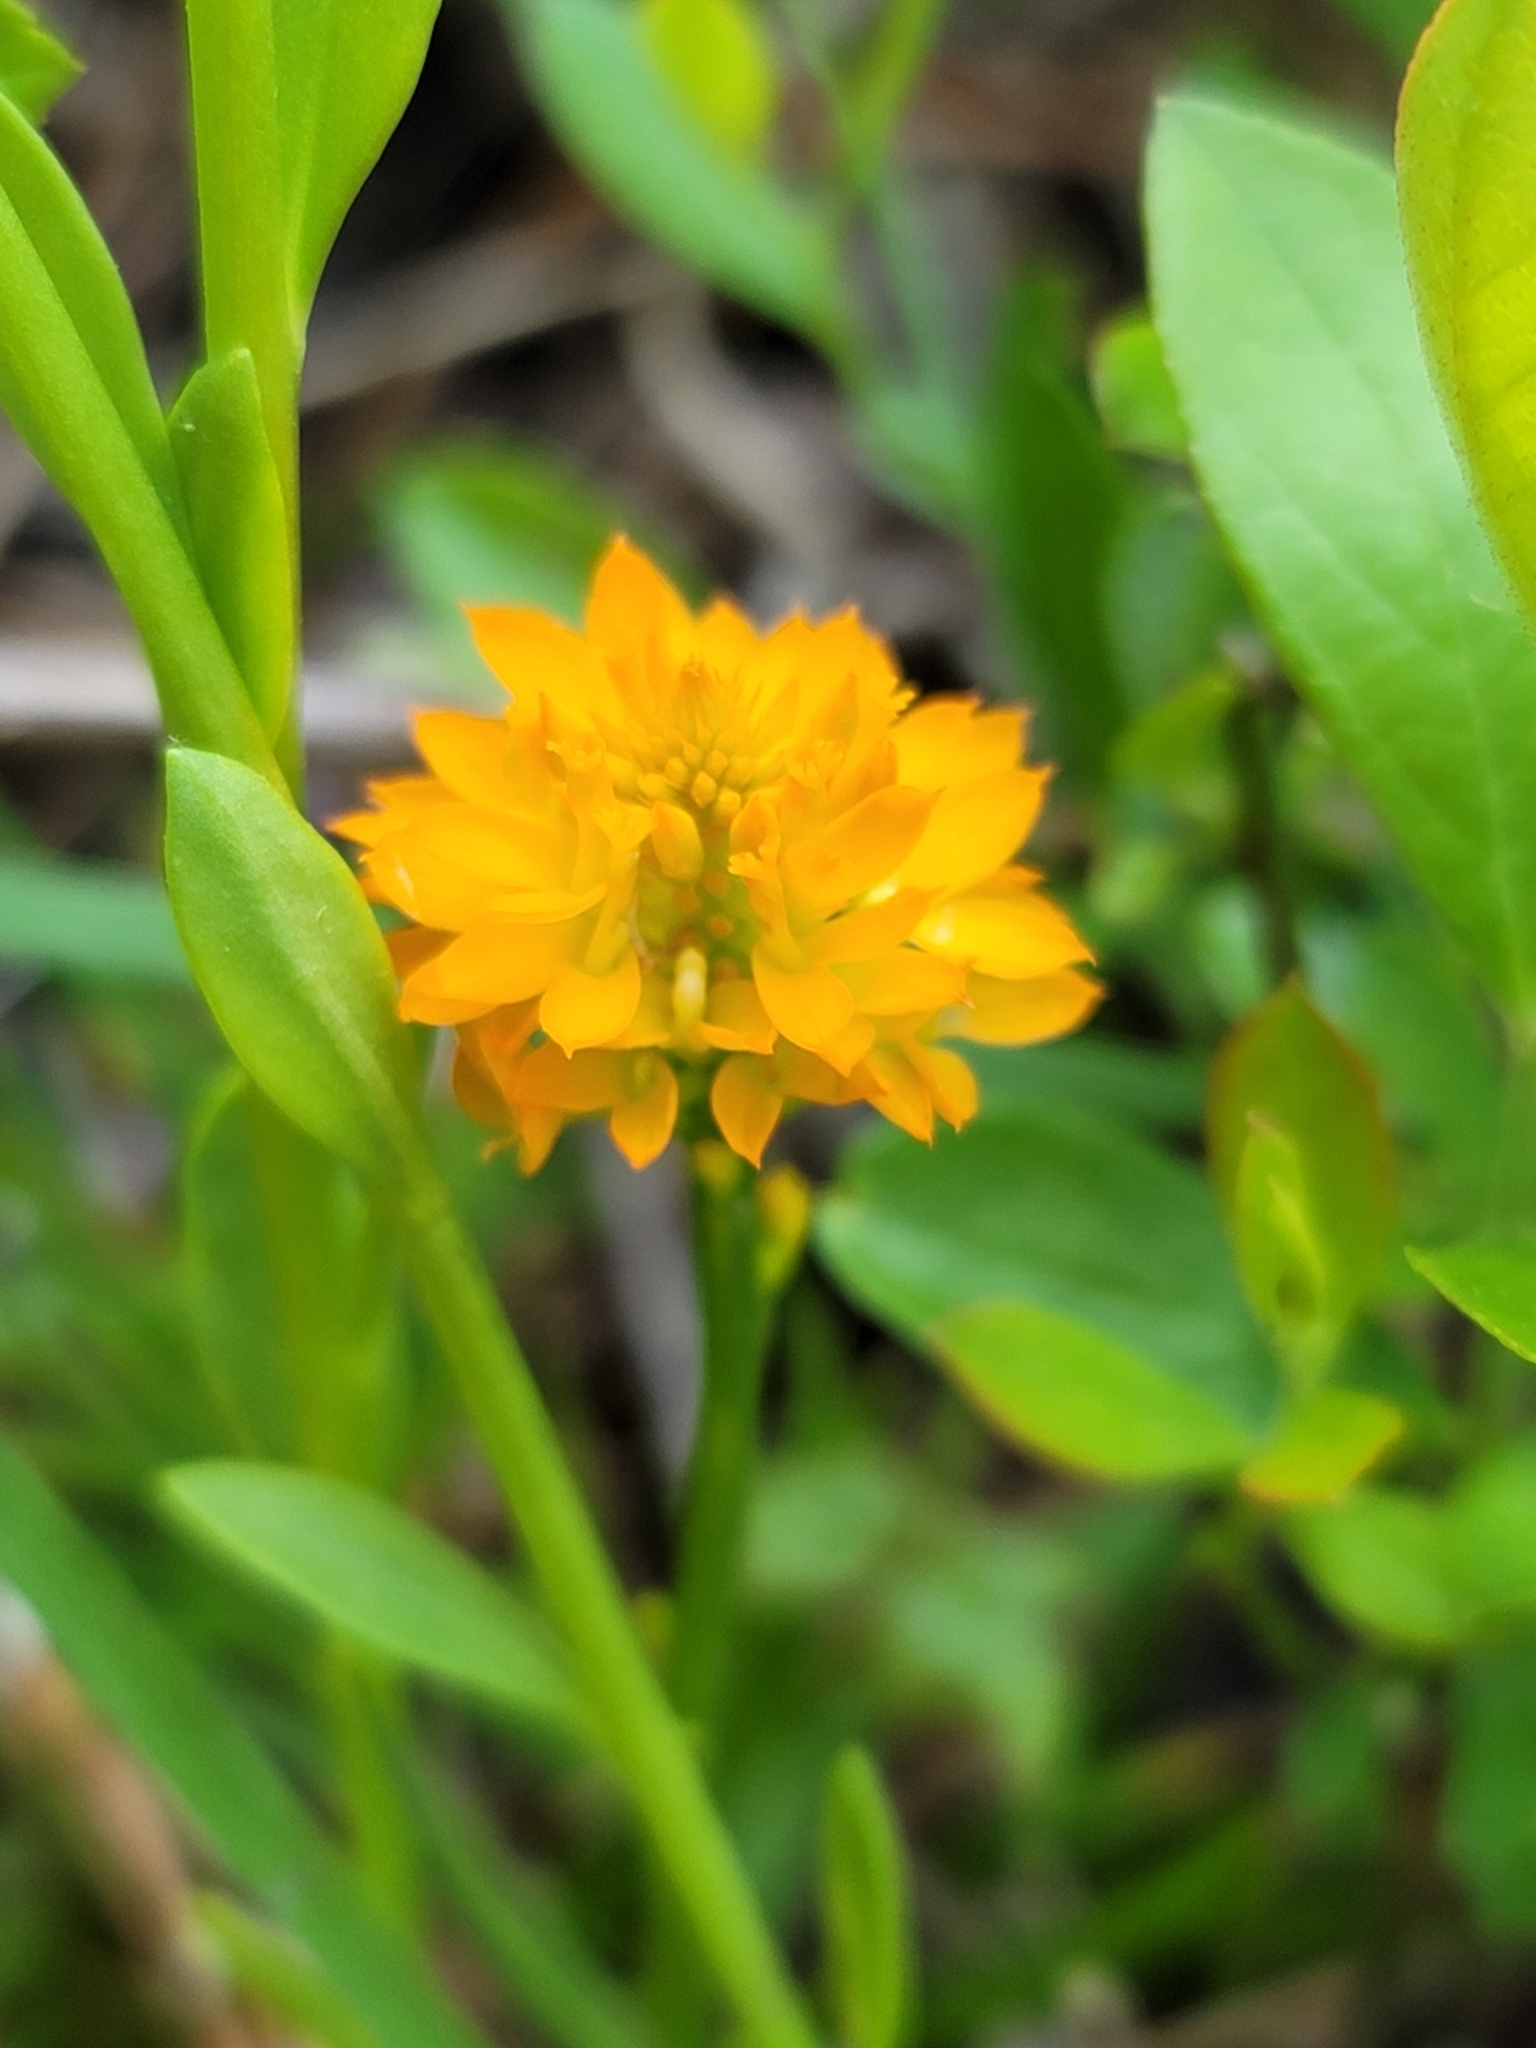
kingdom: Plantae
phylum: Tracheophyta
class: Magnoliopsida
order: Fabales
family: Polygalaceae
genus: Polygala
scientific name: Polygala lutea
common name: Orange milkwort
